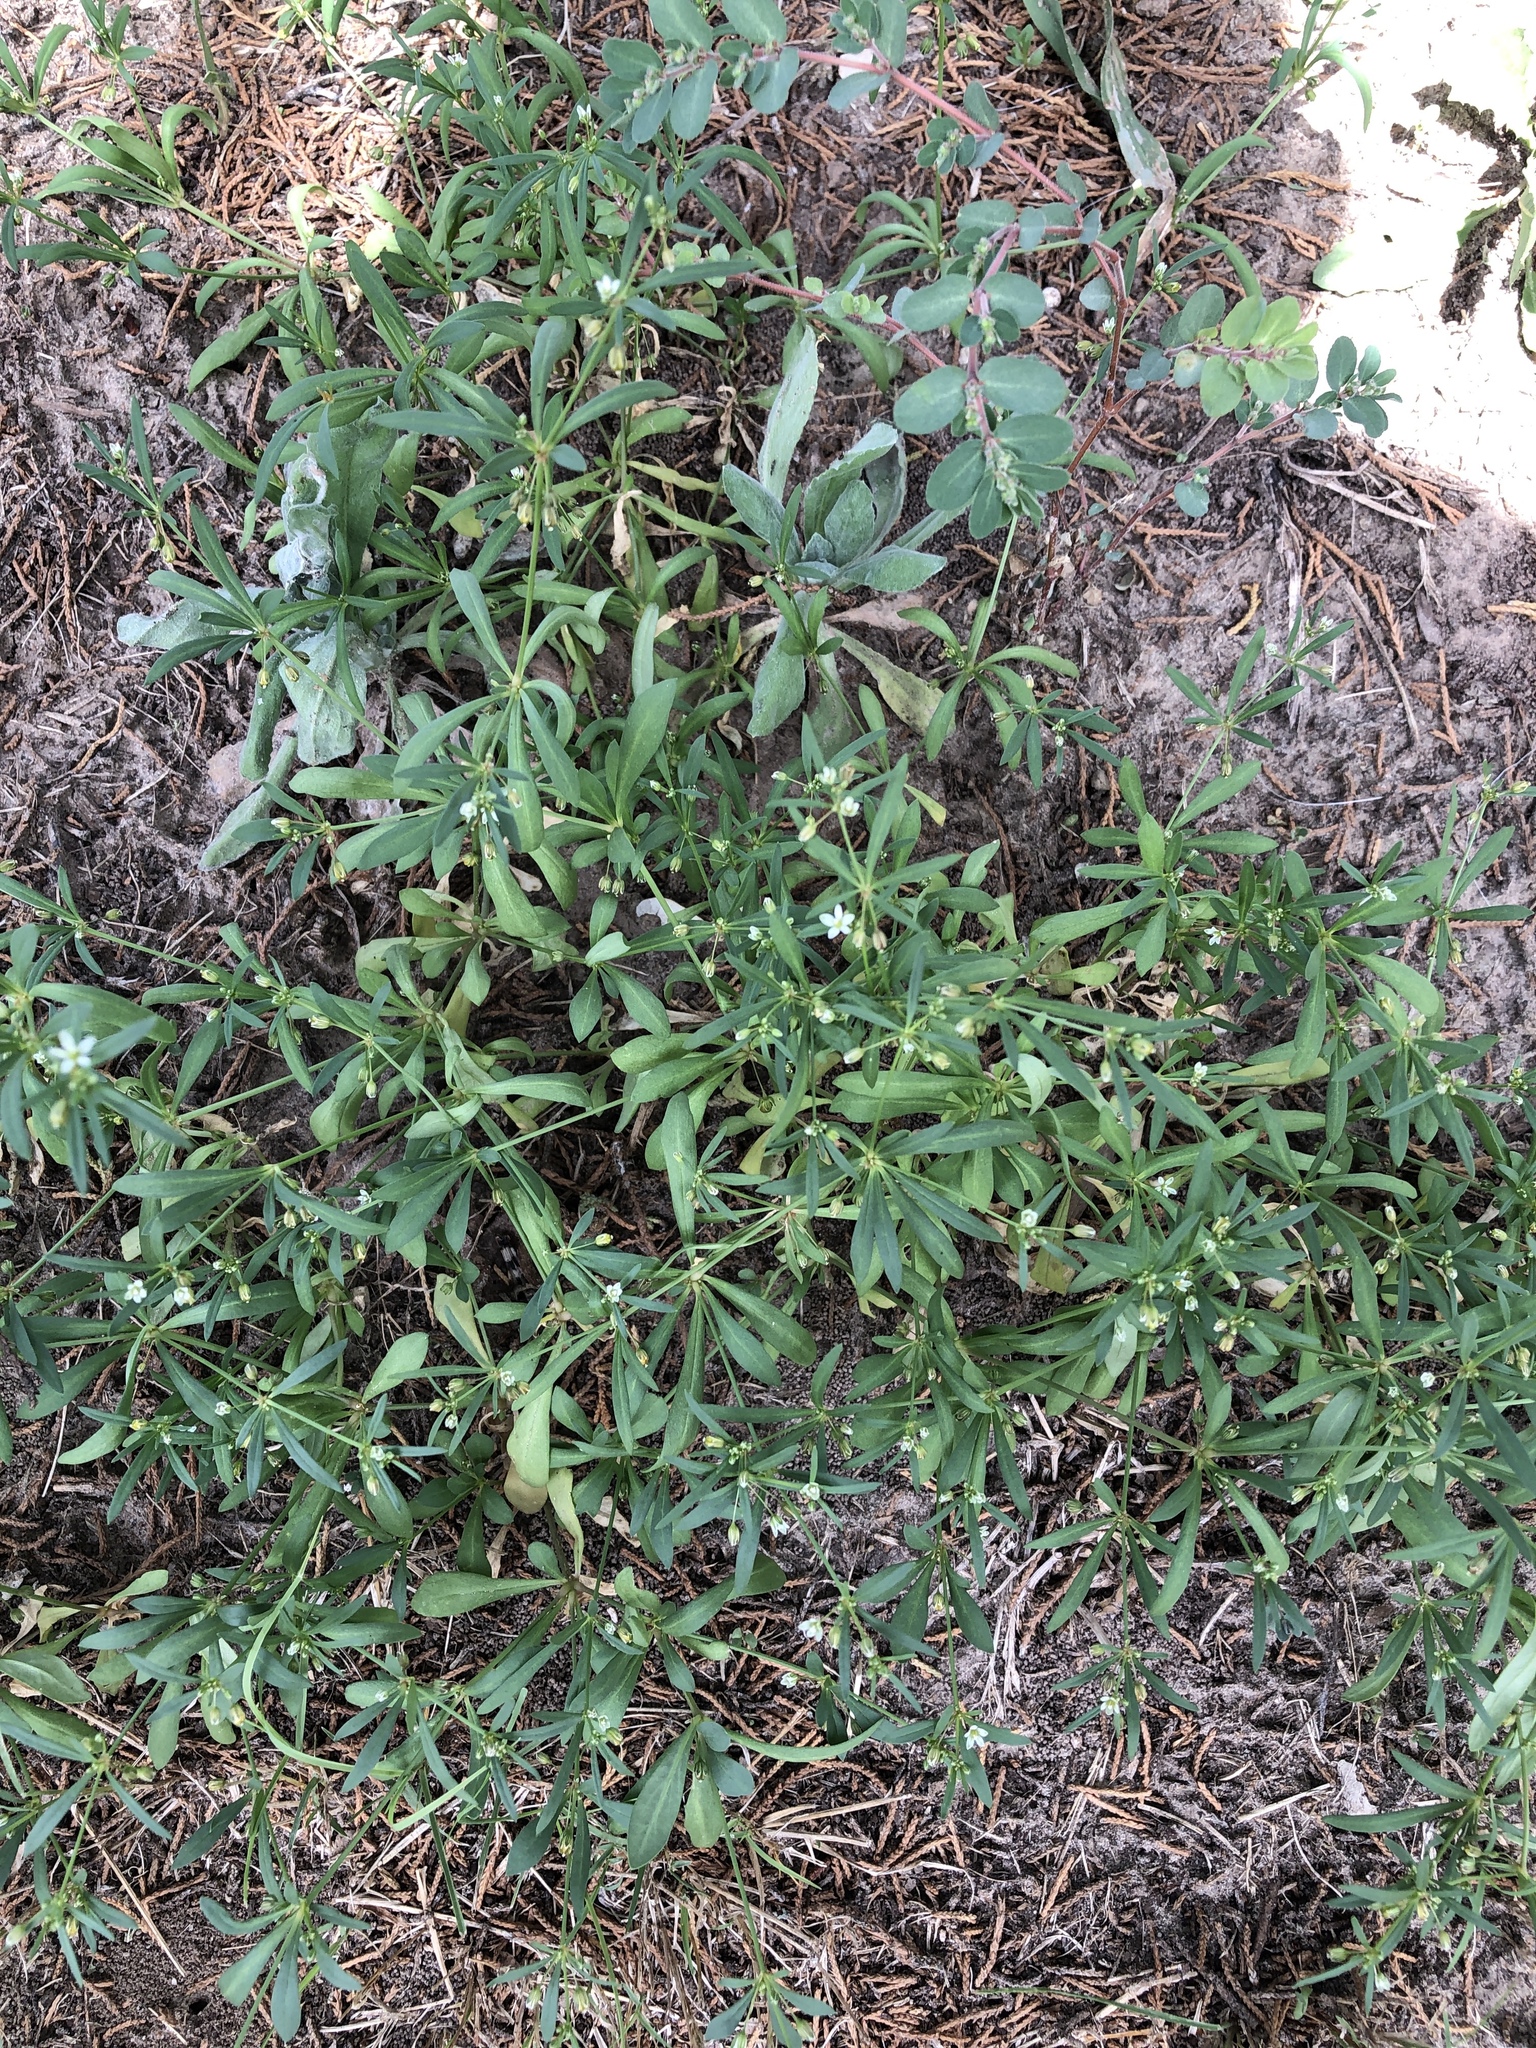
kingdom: Plantae
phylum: Tracheophyta
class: Magnoliopsida
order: Caryophyllales
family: Molluginaceae
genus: Mollugo
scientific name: Mollugo verticillata
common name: Green carpetweed
